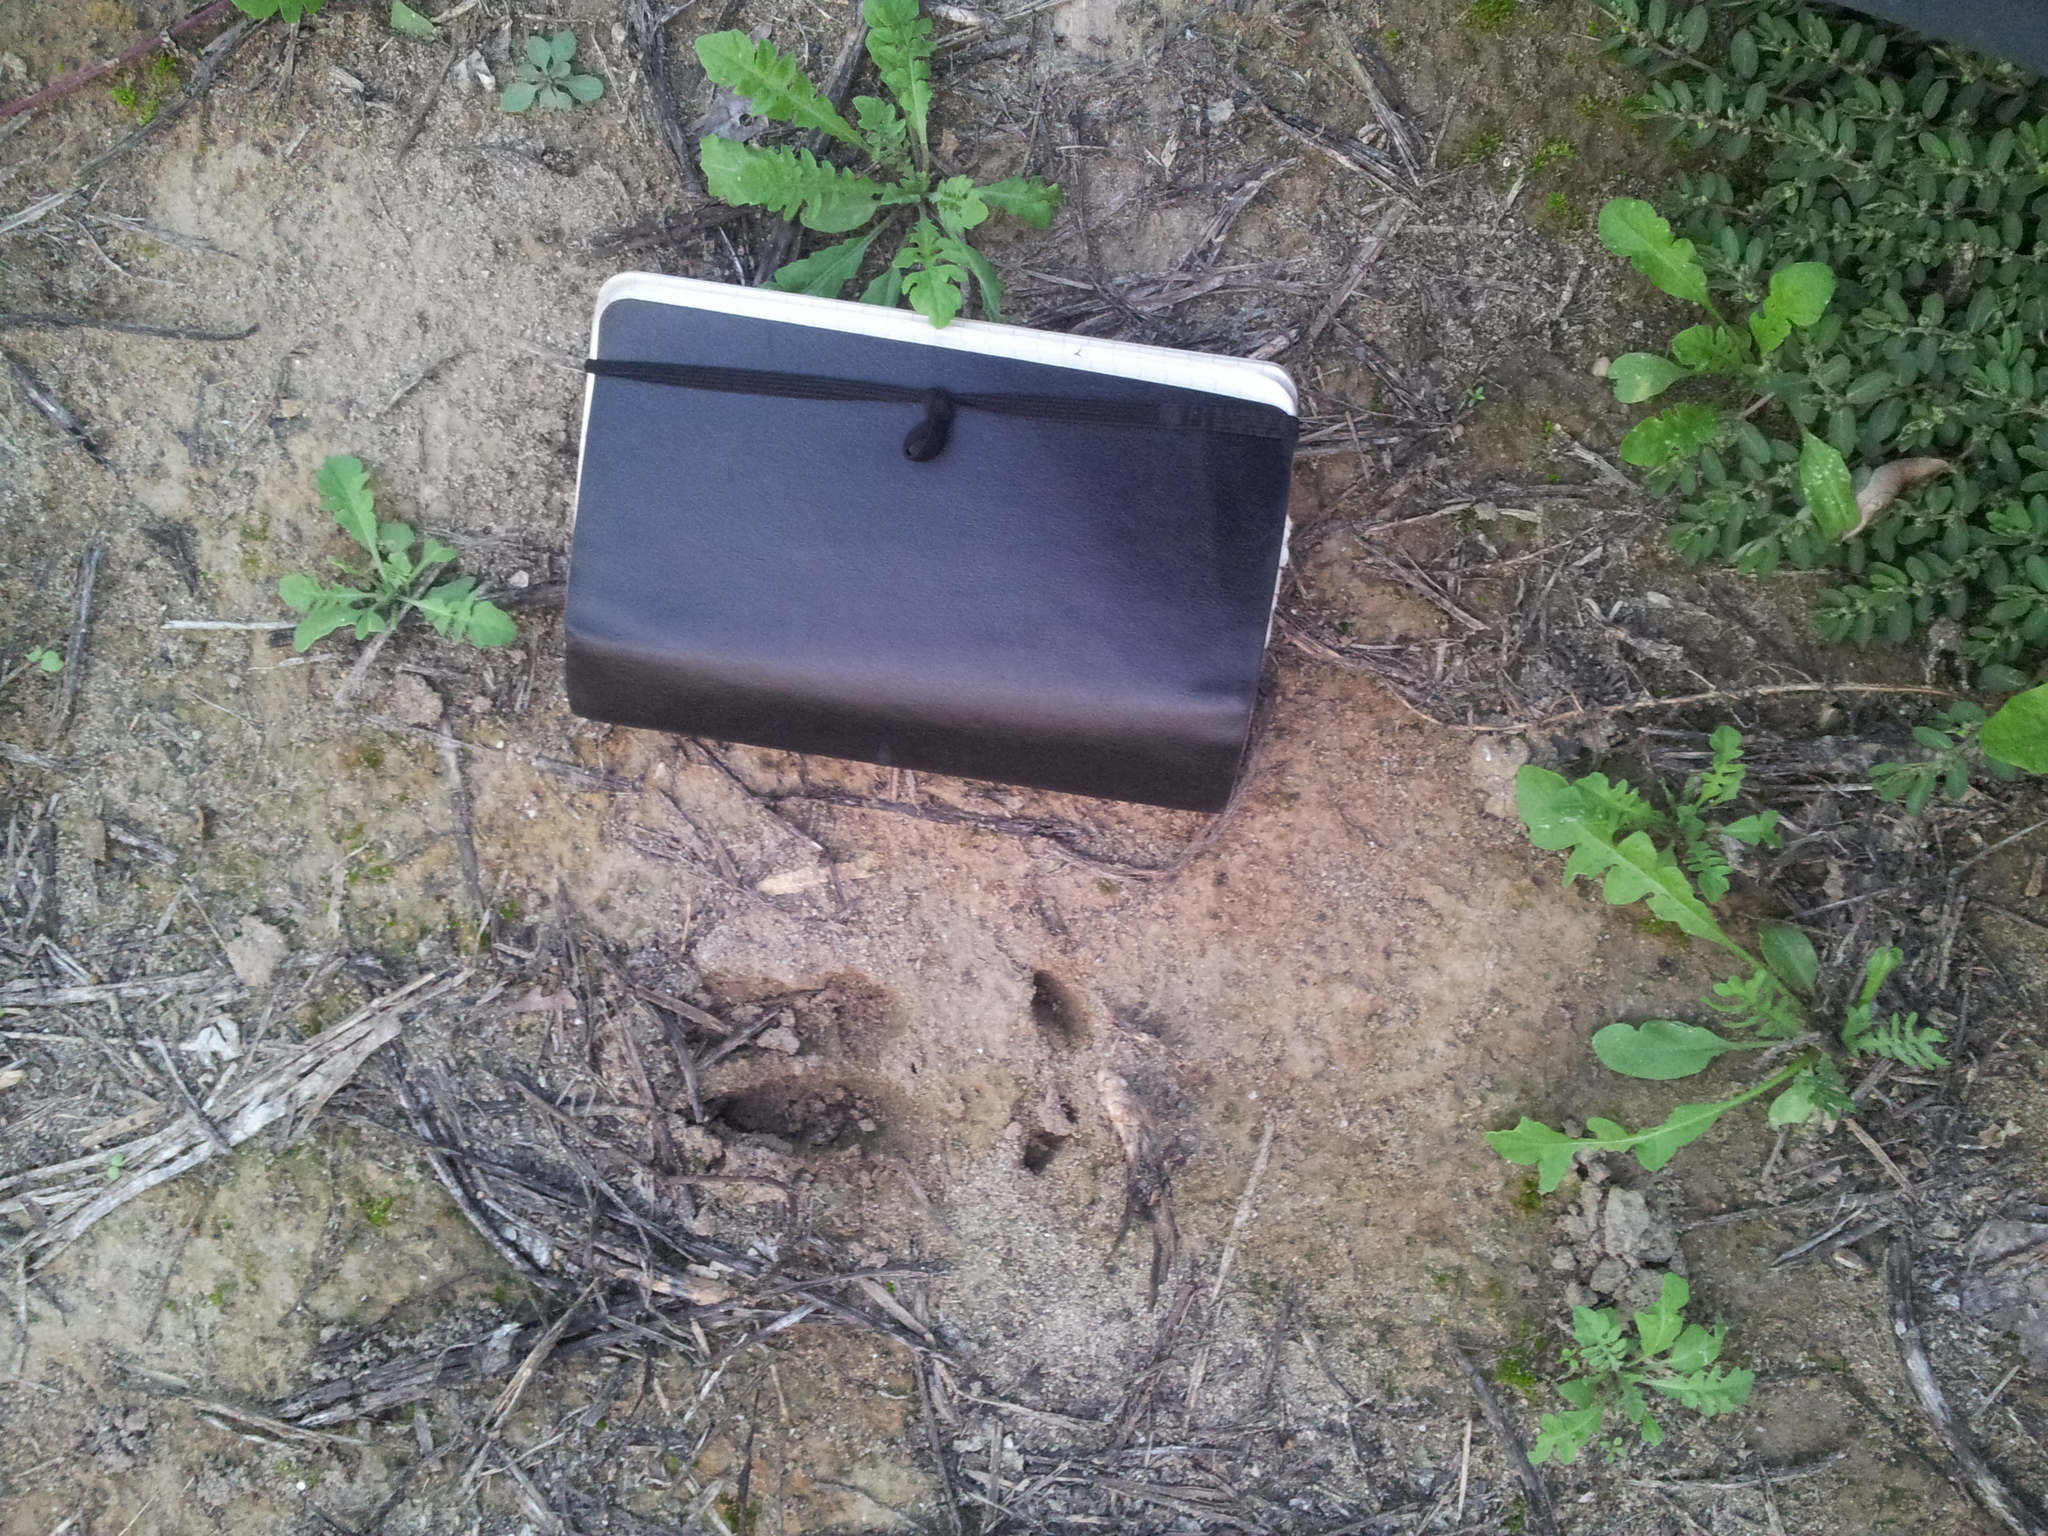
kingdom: Animalia
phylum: Chordata
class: Mammalia
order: Artiodactyla
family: Cervidae
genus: Capreolus
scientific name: Capreolus capreolus
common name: Western roe deer
